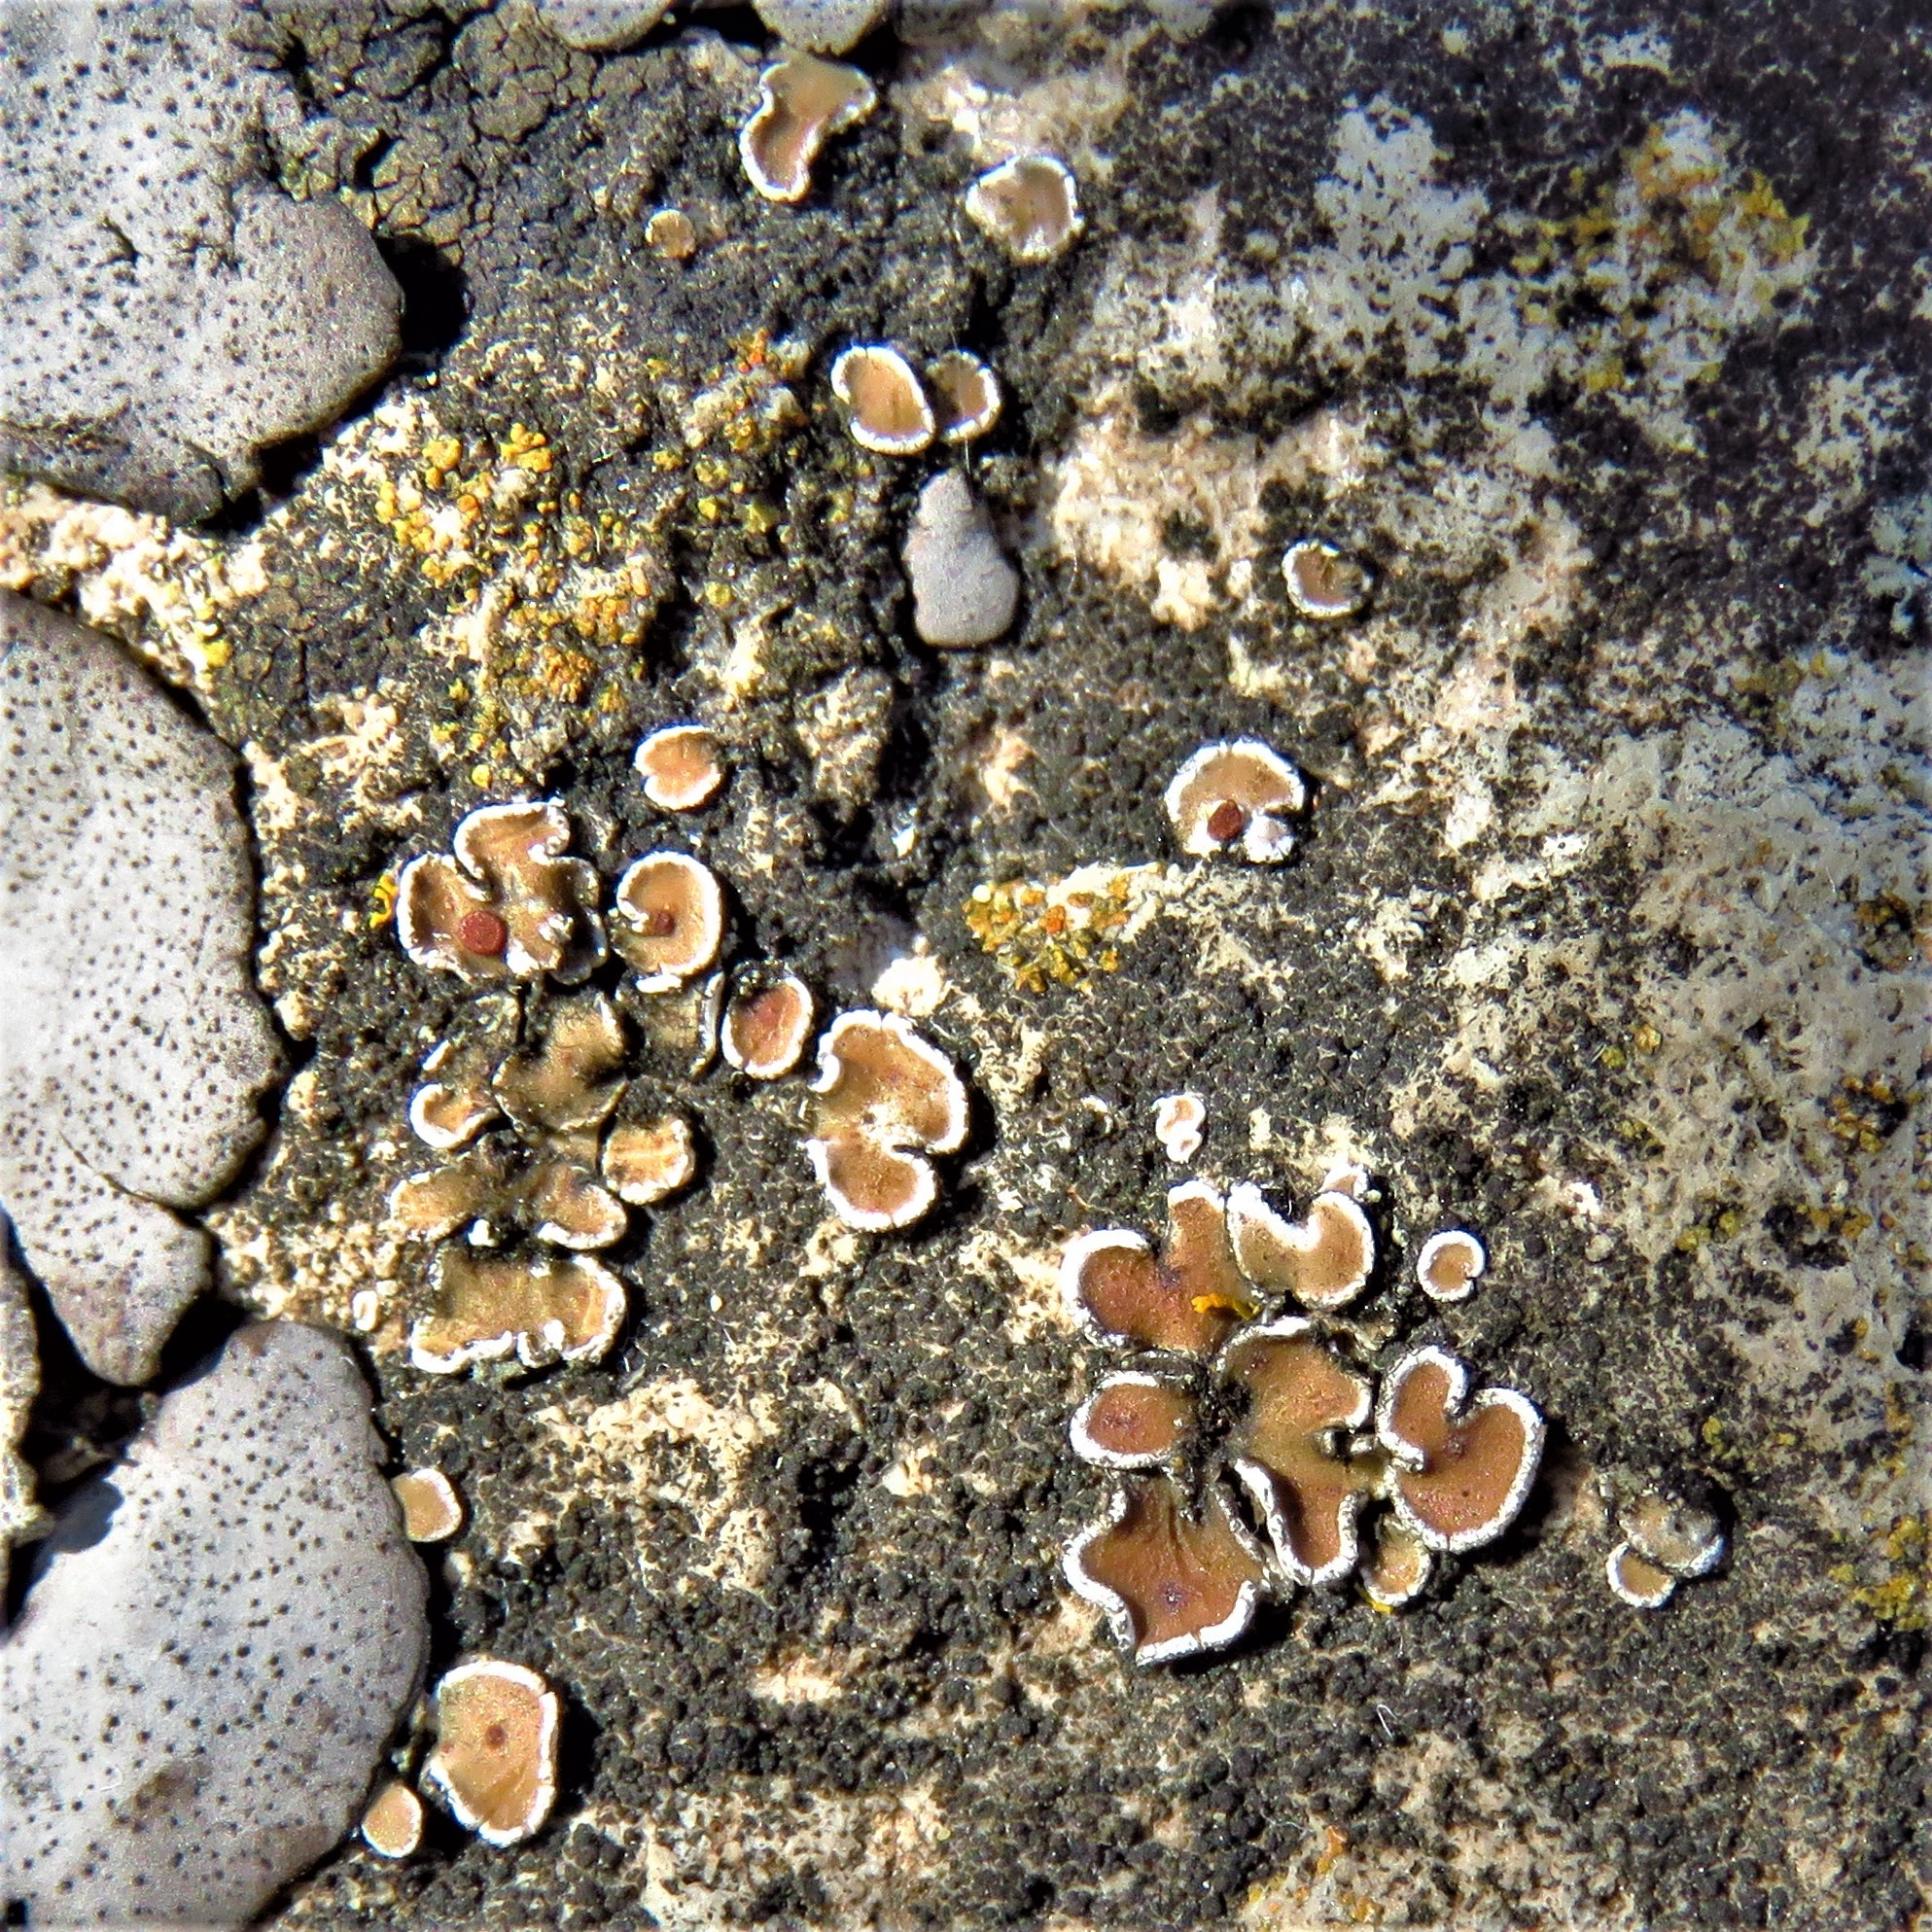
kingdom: Fungi
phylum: Ascomycota
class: Lecanoromycetes
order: Lecanorales
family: Psoraceae
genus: Psora
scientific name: Psora pseudorussellii
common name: Bordered scale lichen
